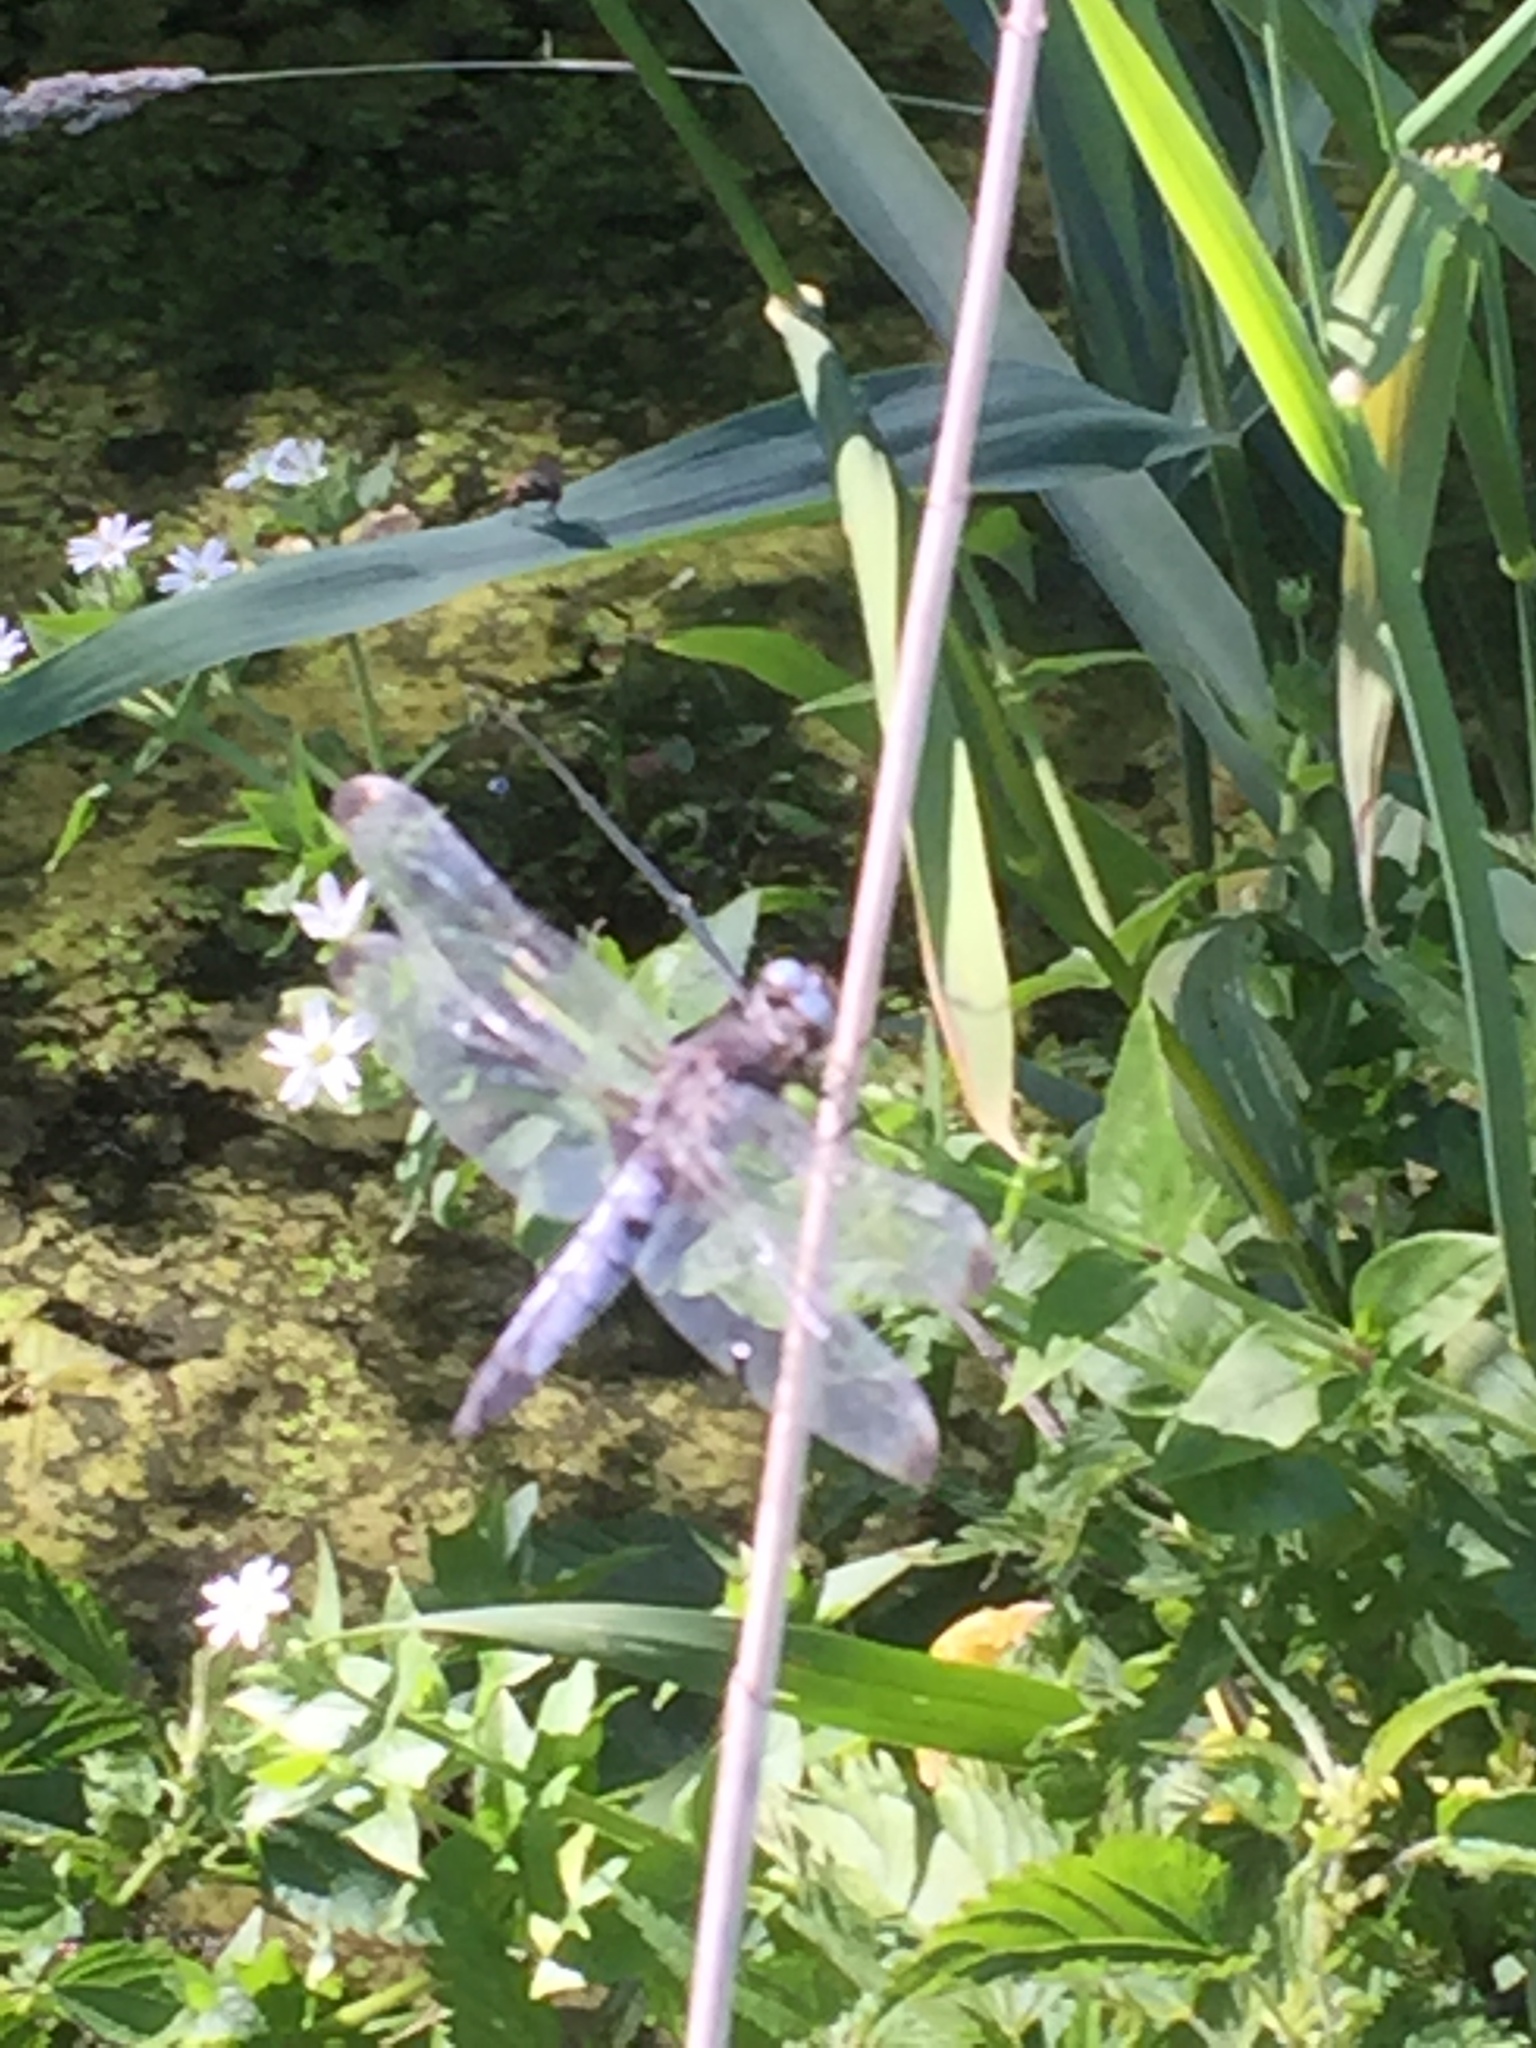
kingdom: Animalia
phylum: Arthropoda
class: Insecta
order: Odonata
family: Libellulidae
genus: Libellula
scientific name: Libellula fulva
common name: Blue chaser
